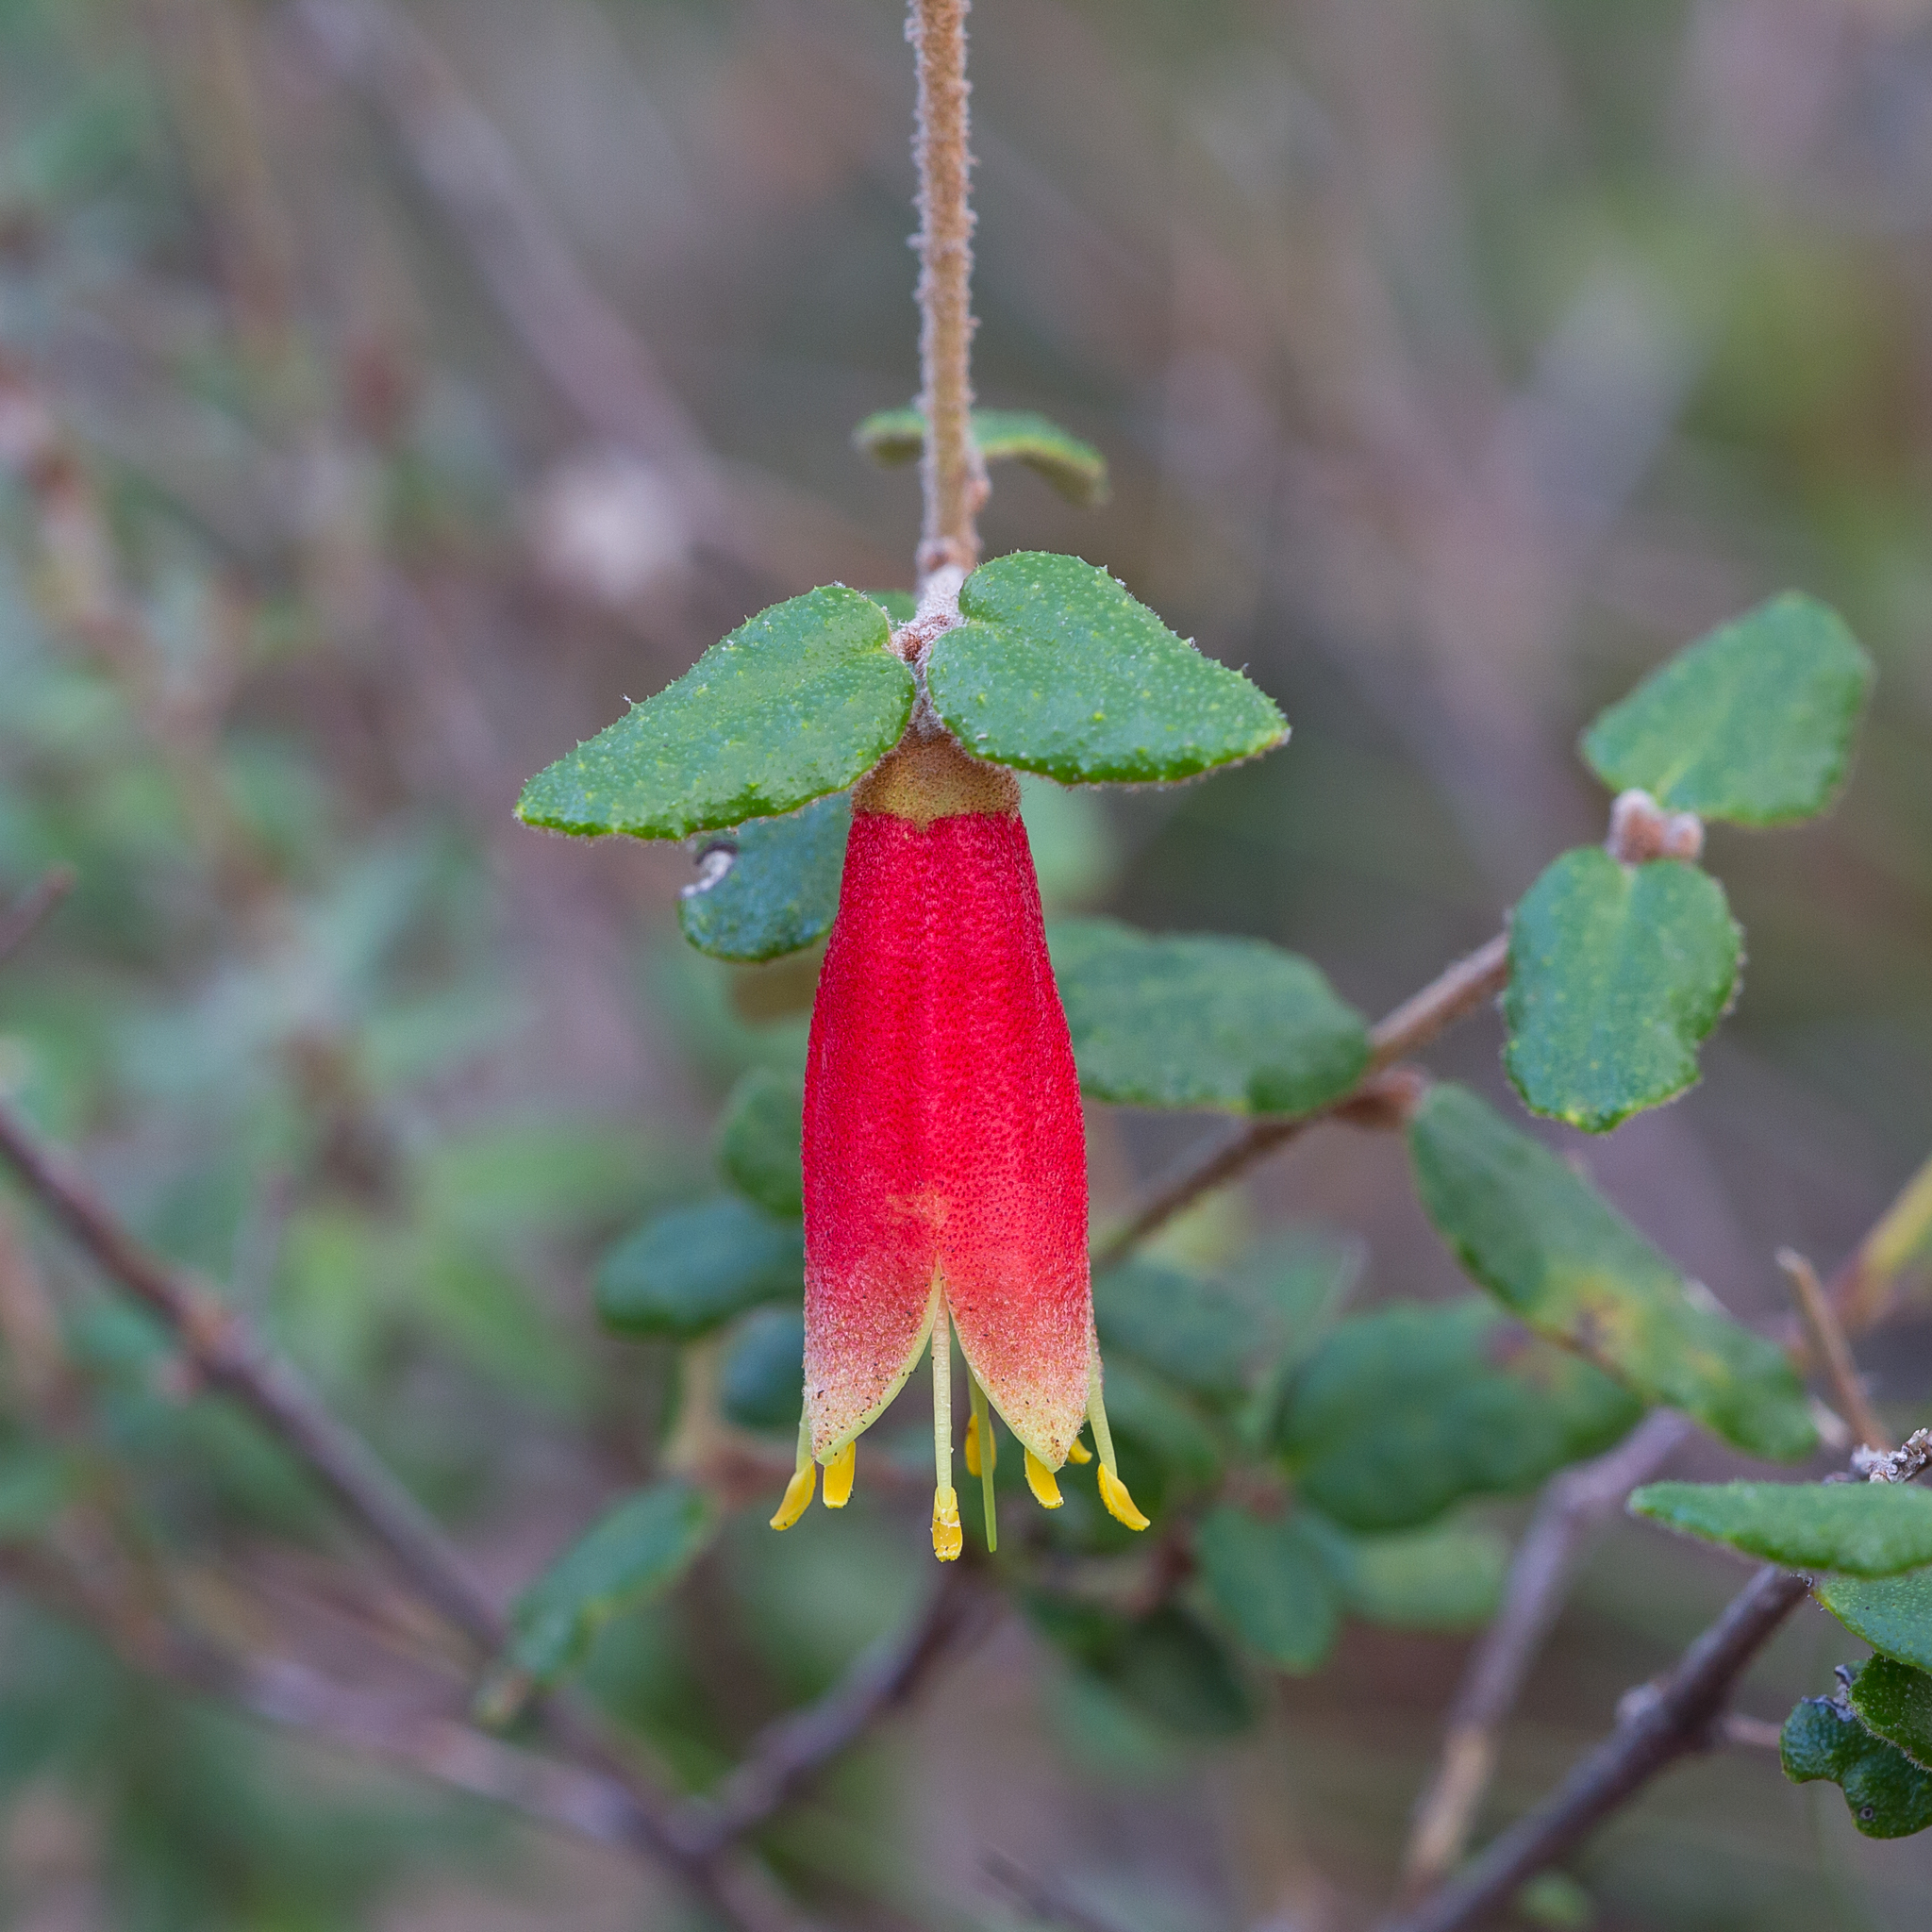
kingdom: Plantae
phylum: Tracheophyta
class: Magnoliopsida
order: Sapindales
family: Rutaceae
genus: Correa
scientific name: Correa reflexa
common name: Common correa
